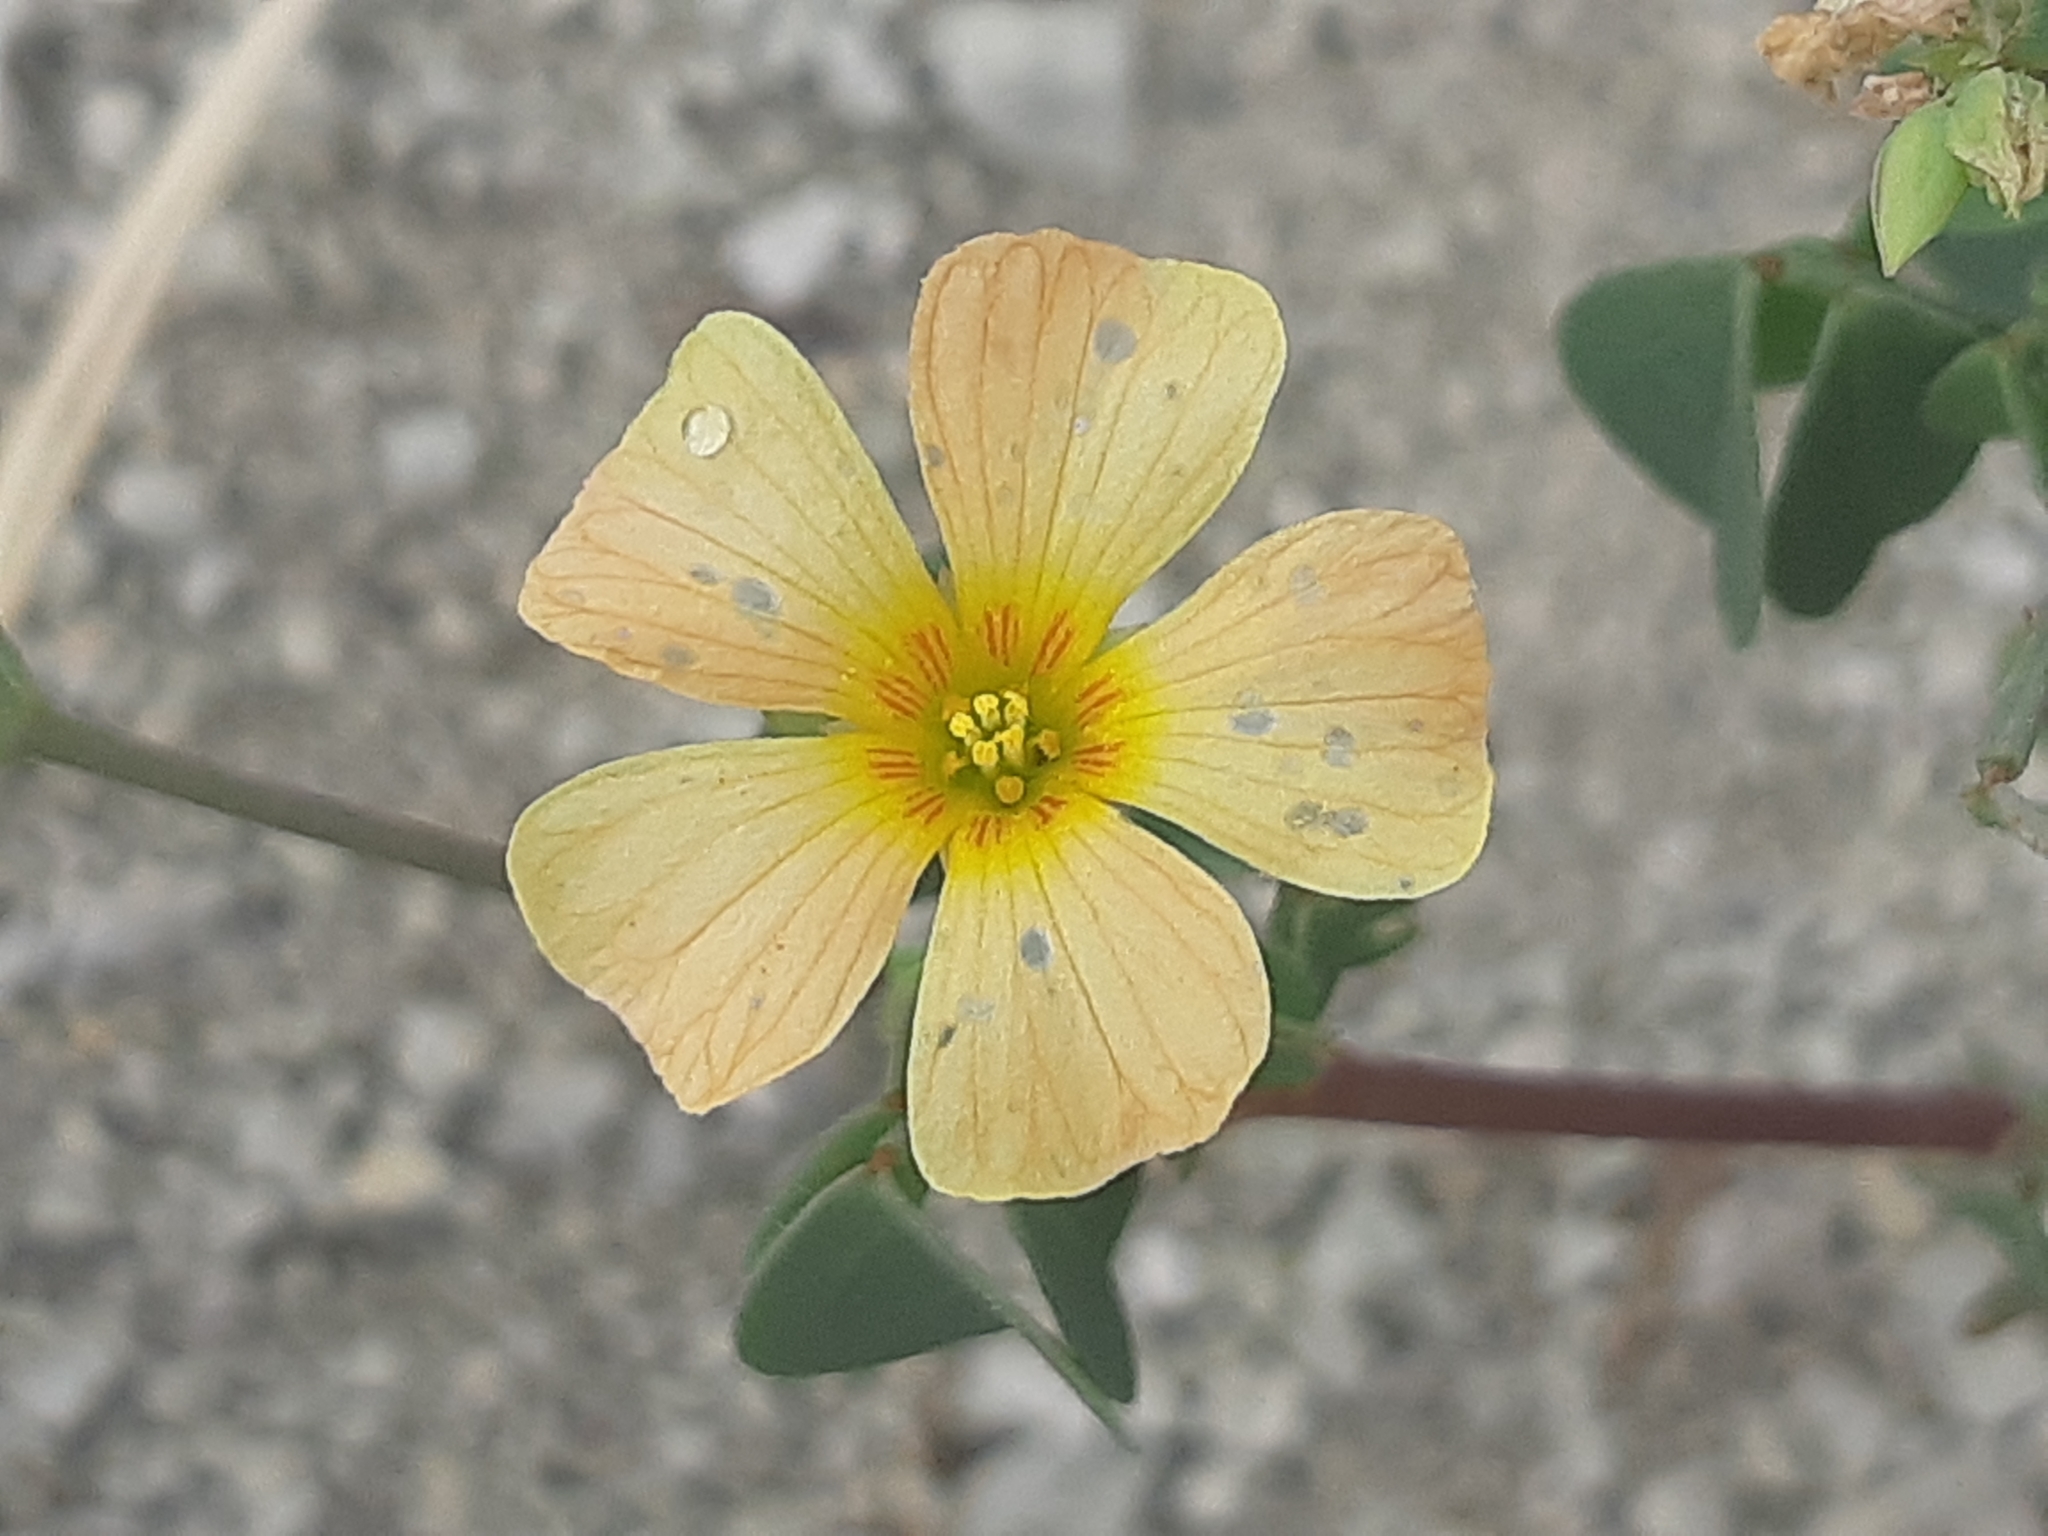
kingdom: Plantae
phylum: Tracheophyta
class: Magnoliopsida
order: Oxalidales
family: Oxalidaceae
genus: Oxalis
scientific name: Oxalis dombeyi
